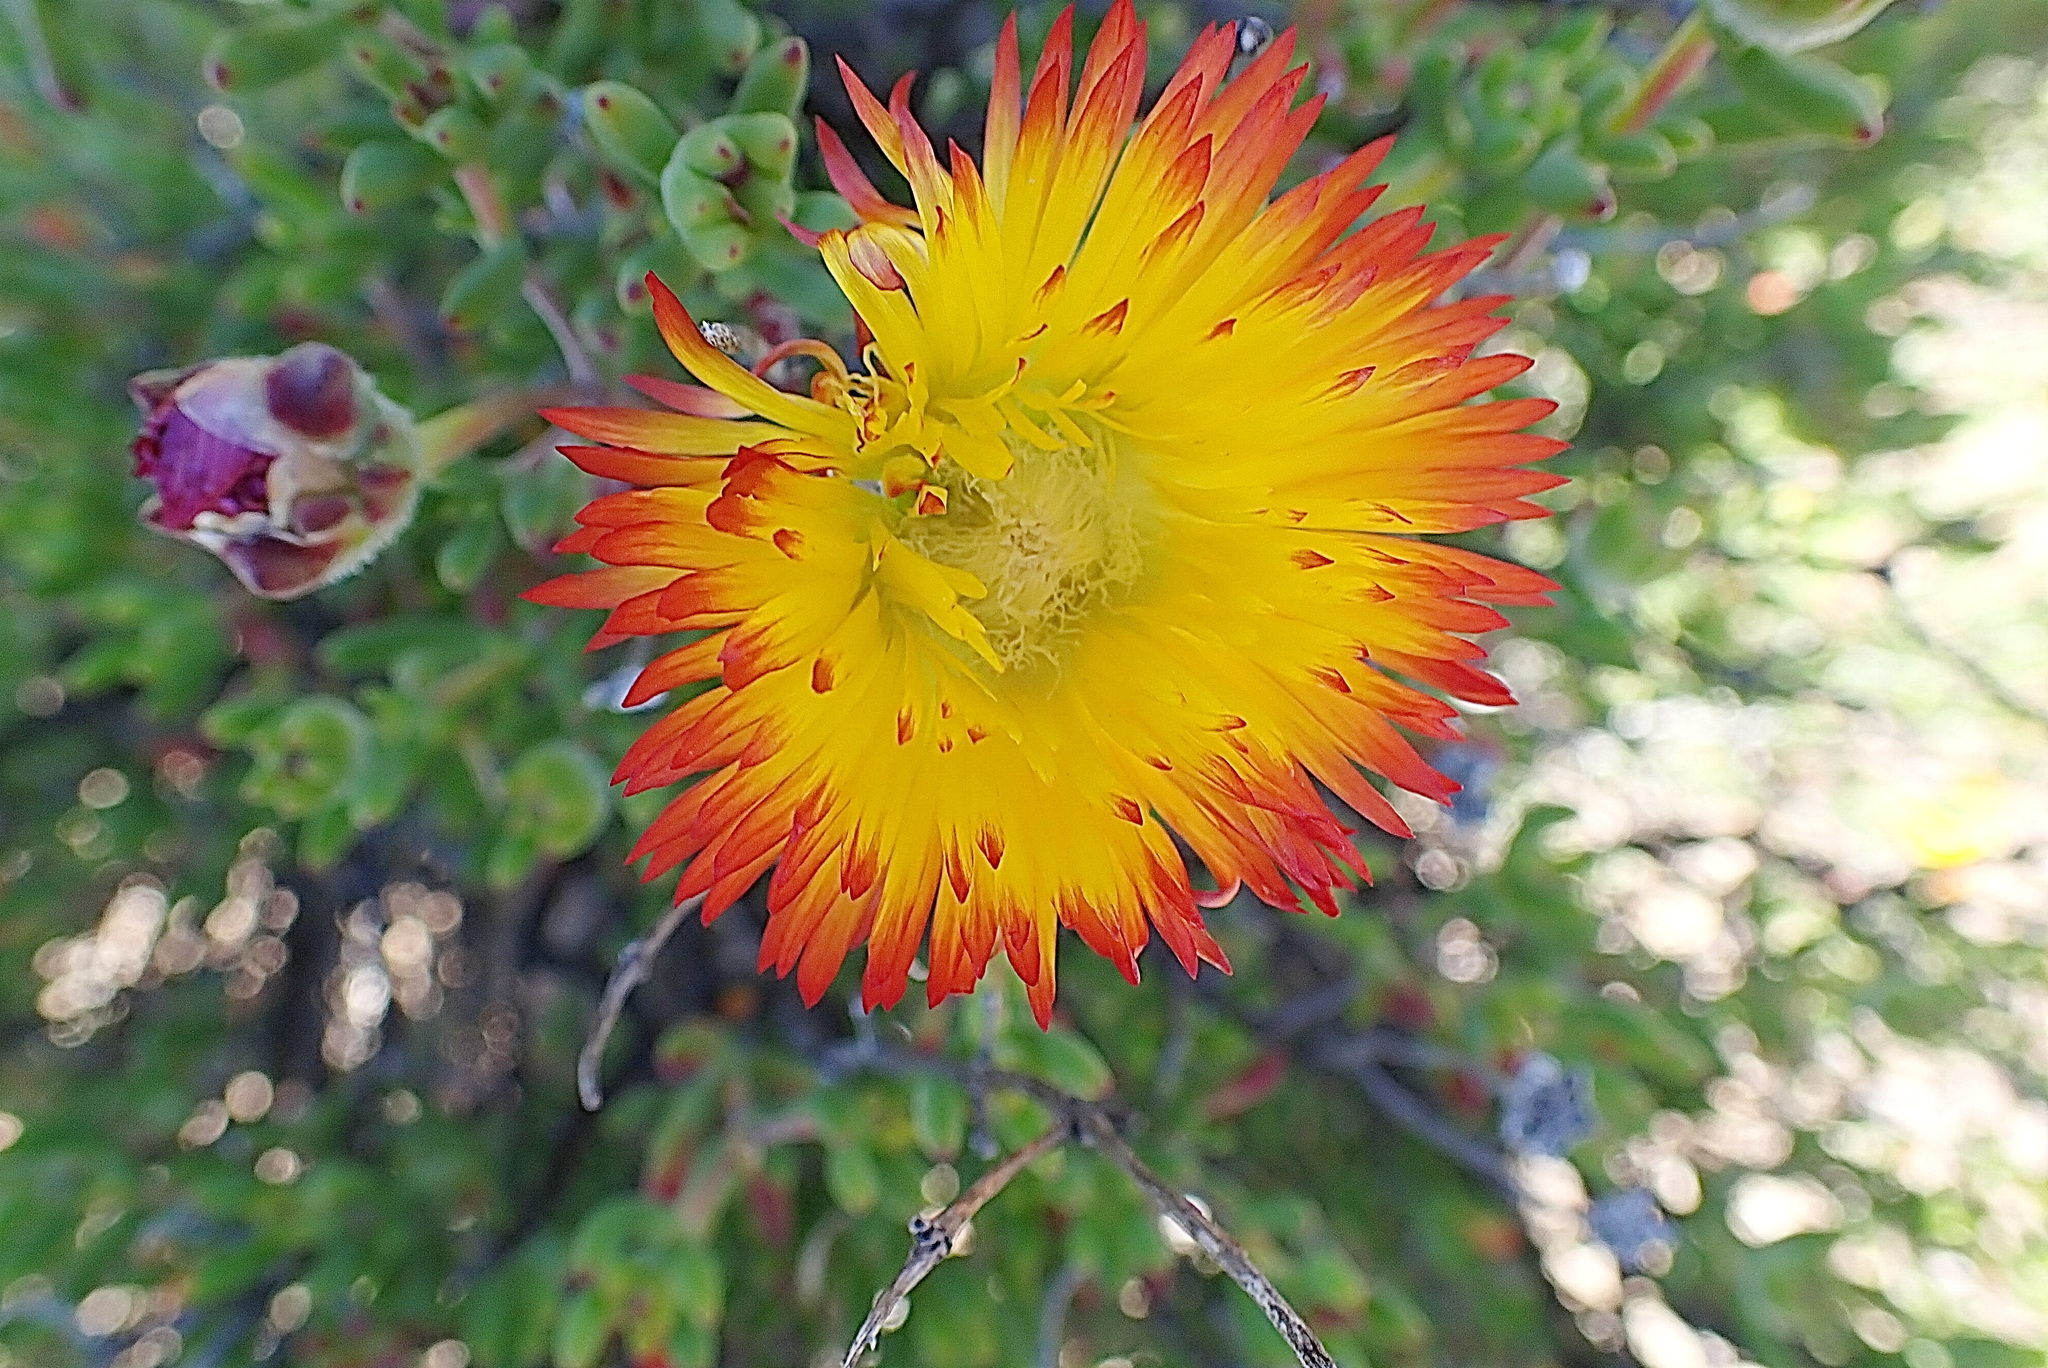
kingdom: Plantae
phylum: Tracheophyta
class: Magnoliopsida
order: Caryophyllales
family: Aizoaceae
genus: Drosanthemum
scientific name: Drosanthemum bicolor
